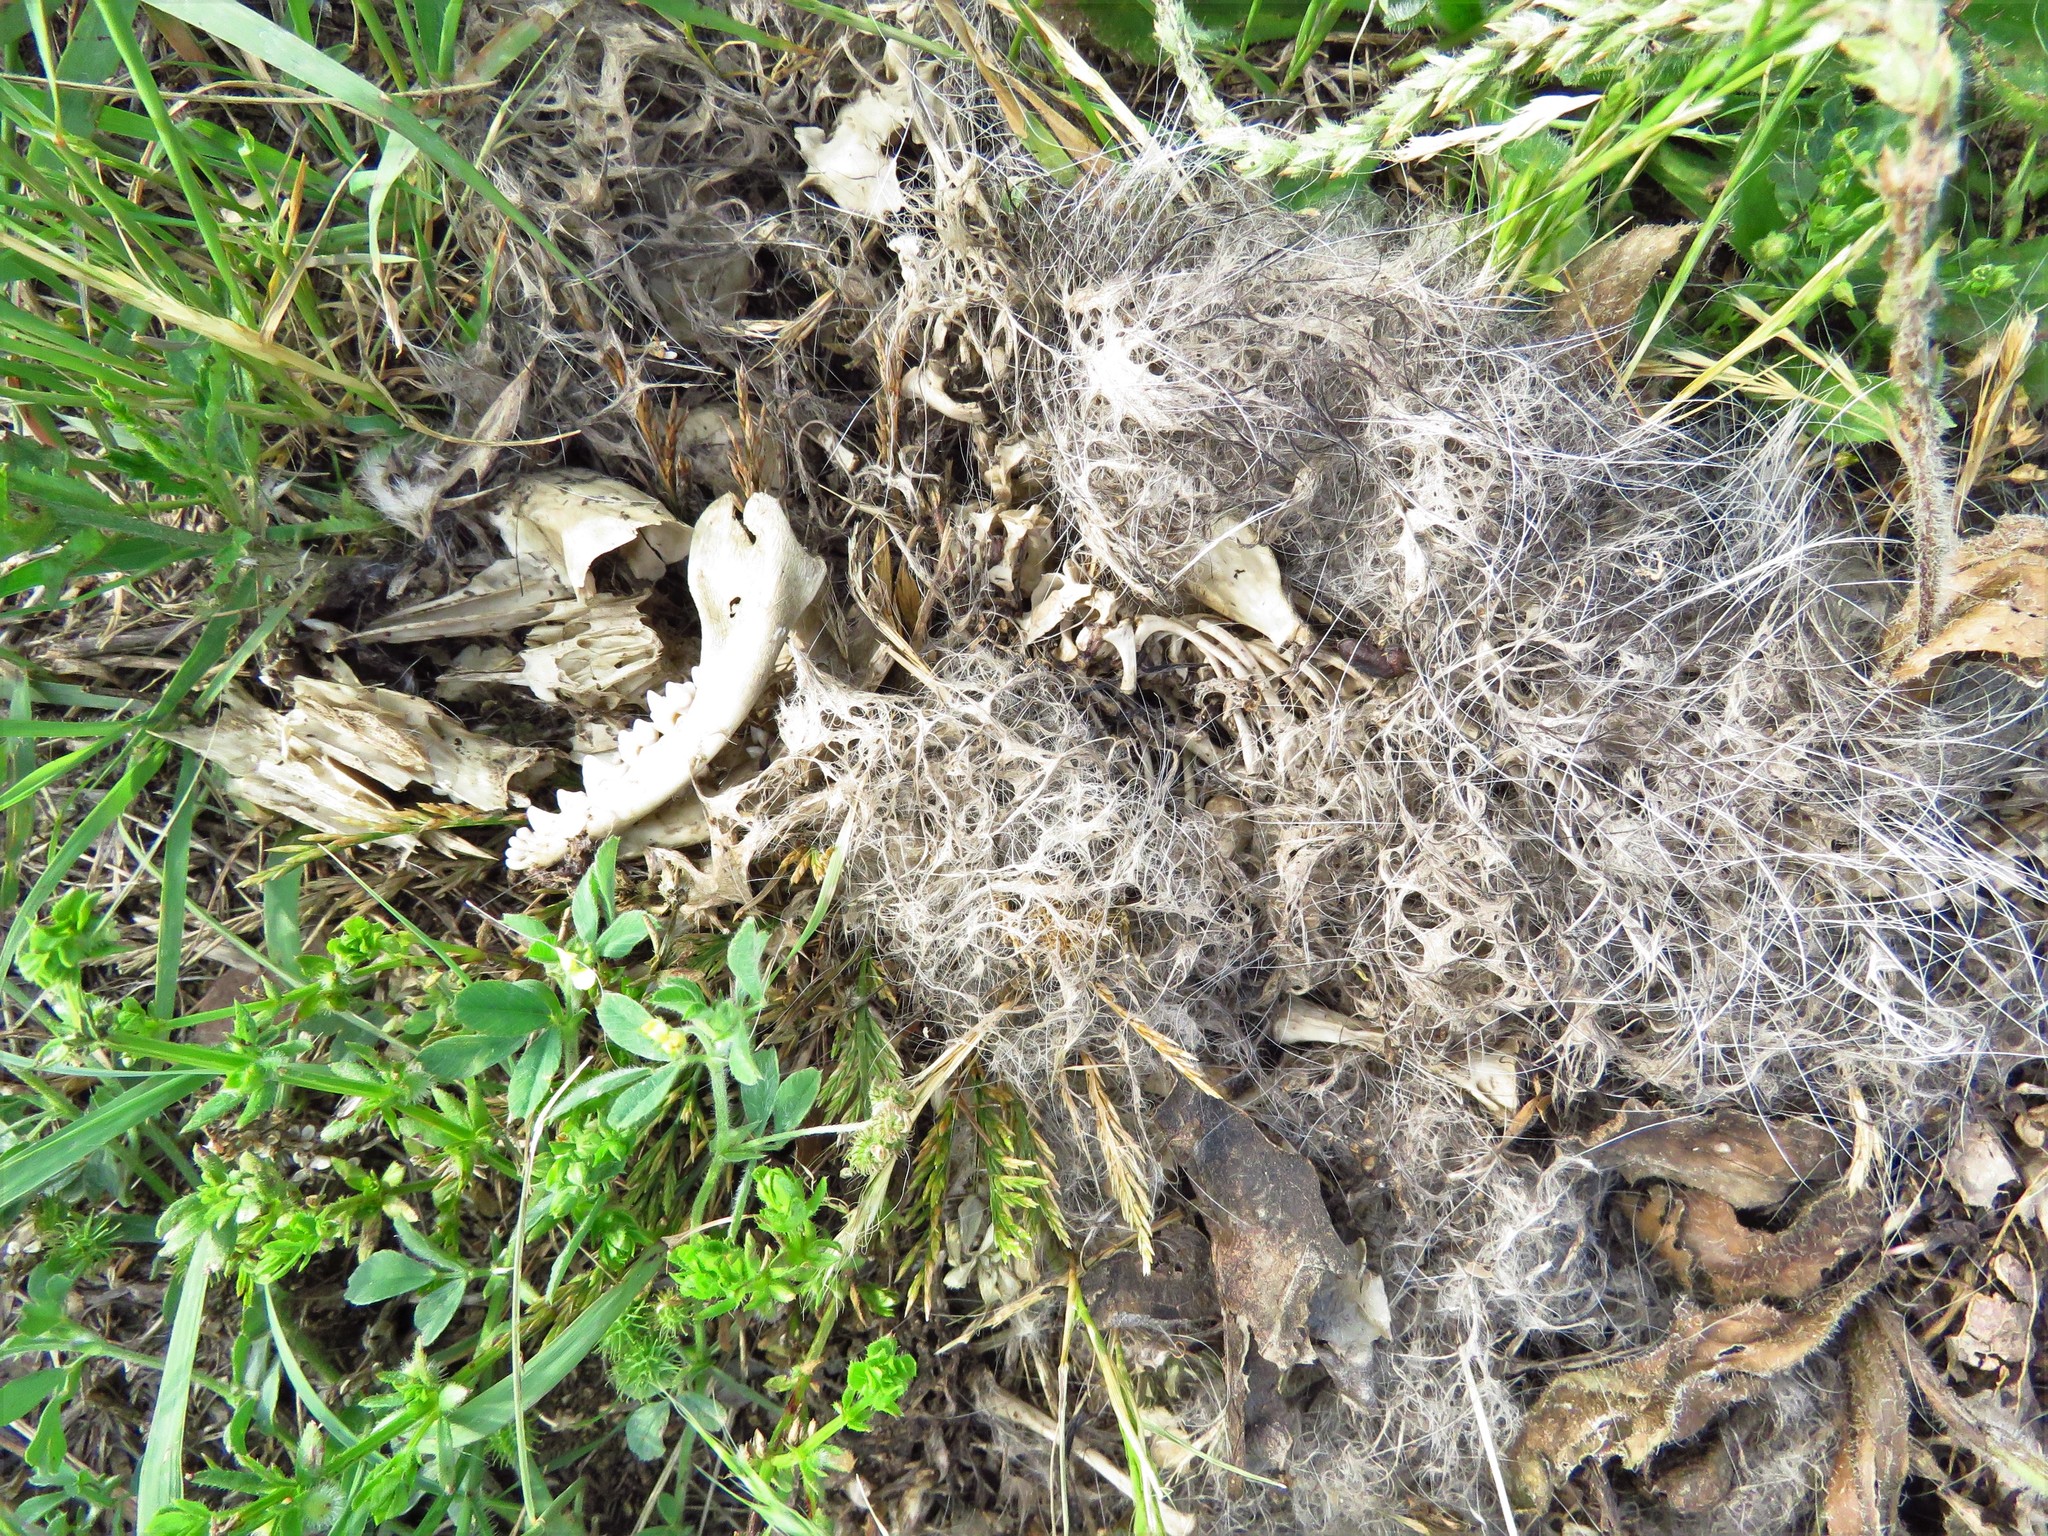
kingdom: Animalia
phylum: Chordata
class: Mammalia
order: Didelphimorphia
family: Didelphidae
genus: Didelphis
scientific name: Didelphis virginiana
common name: Virginia opossum
